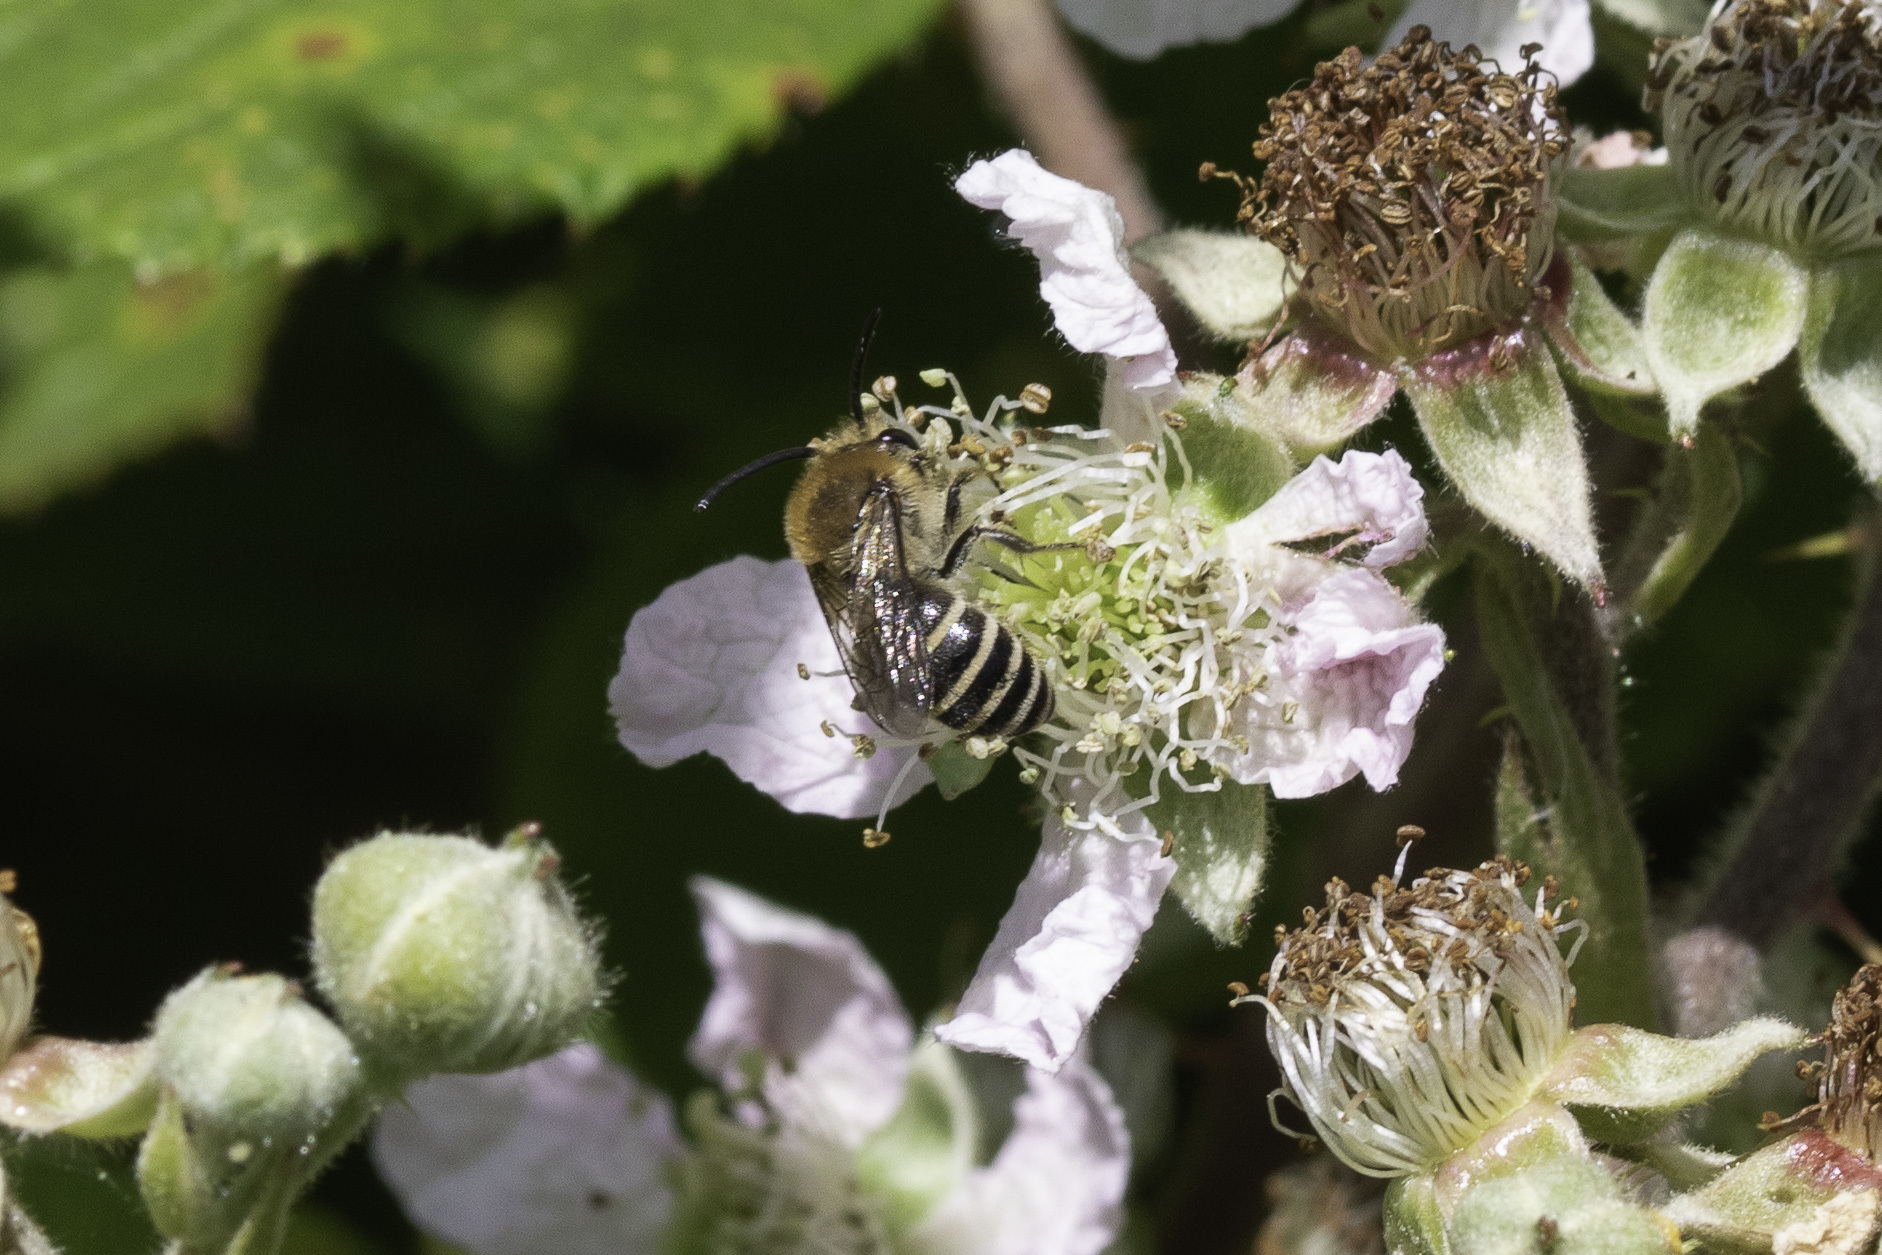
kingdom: Animalia
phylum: Arthropoda
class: Insecta
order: Hymenoptera
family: Colletidae
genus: Colletes
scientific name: Colletes
